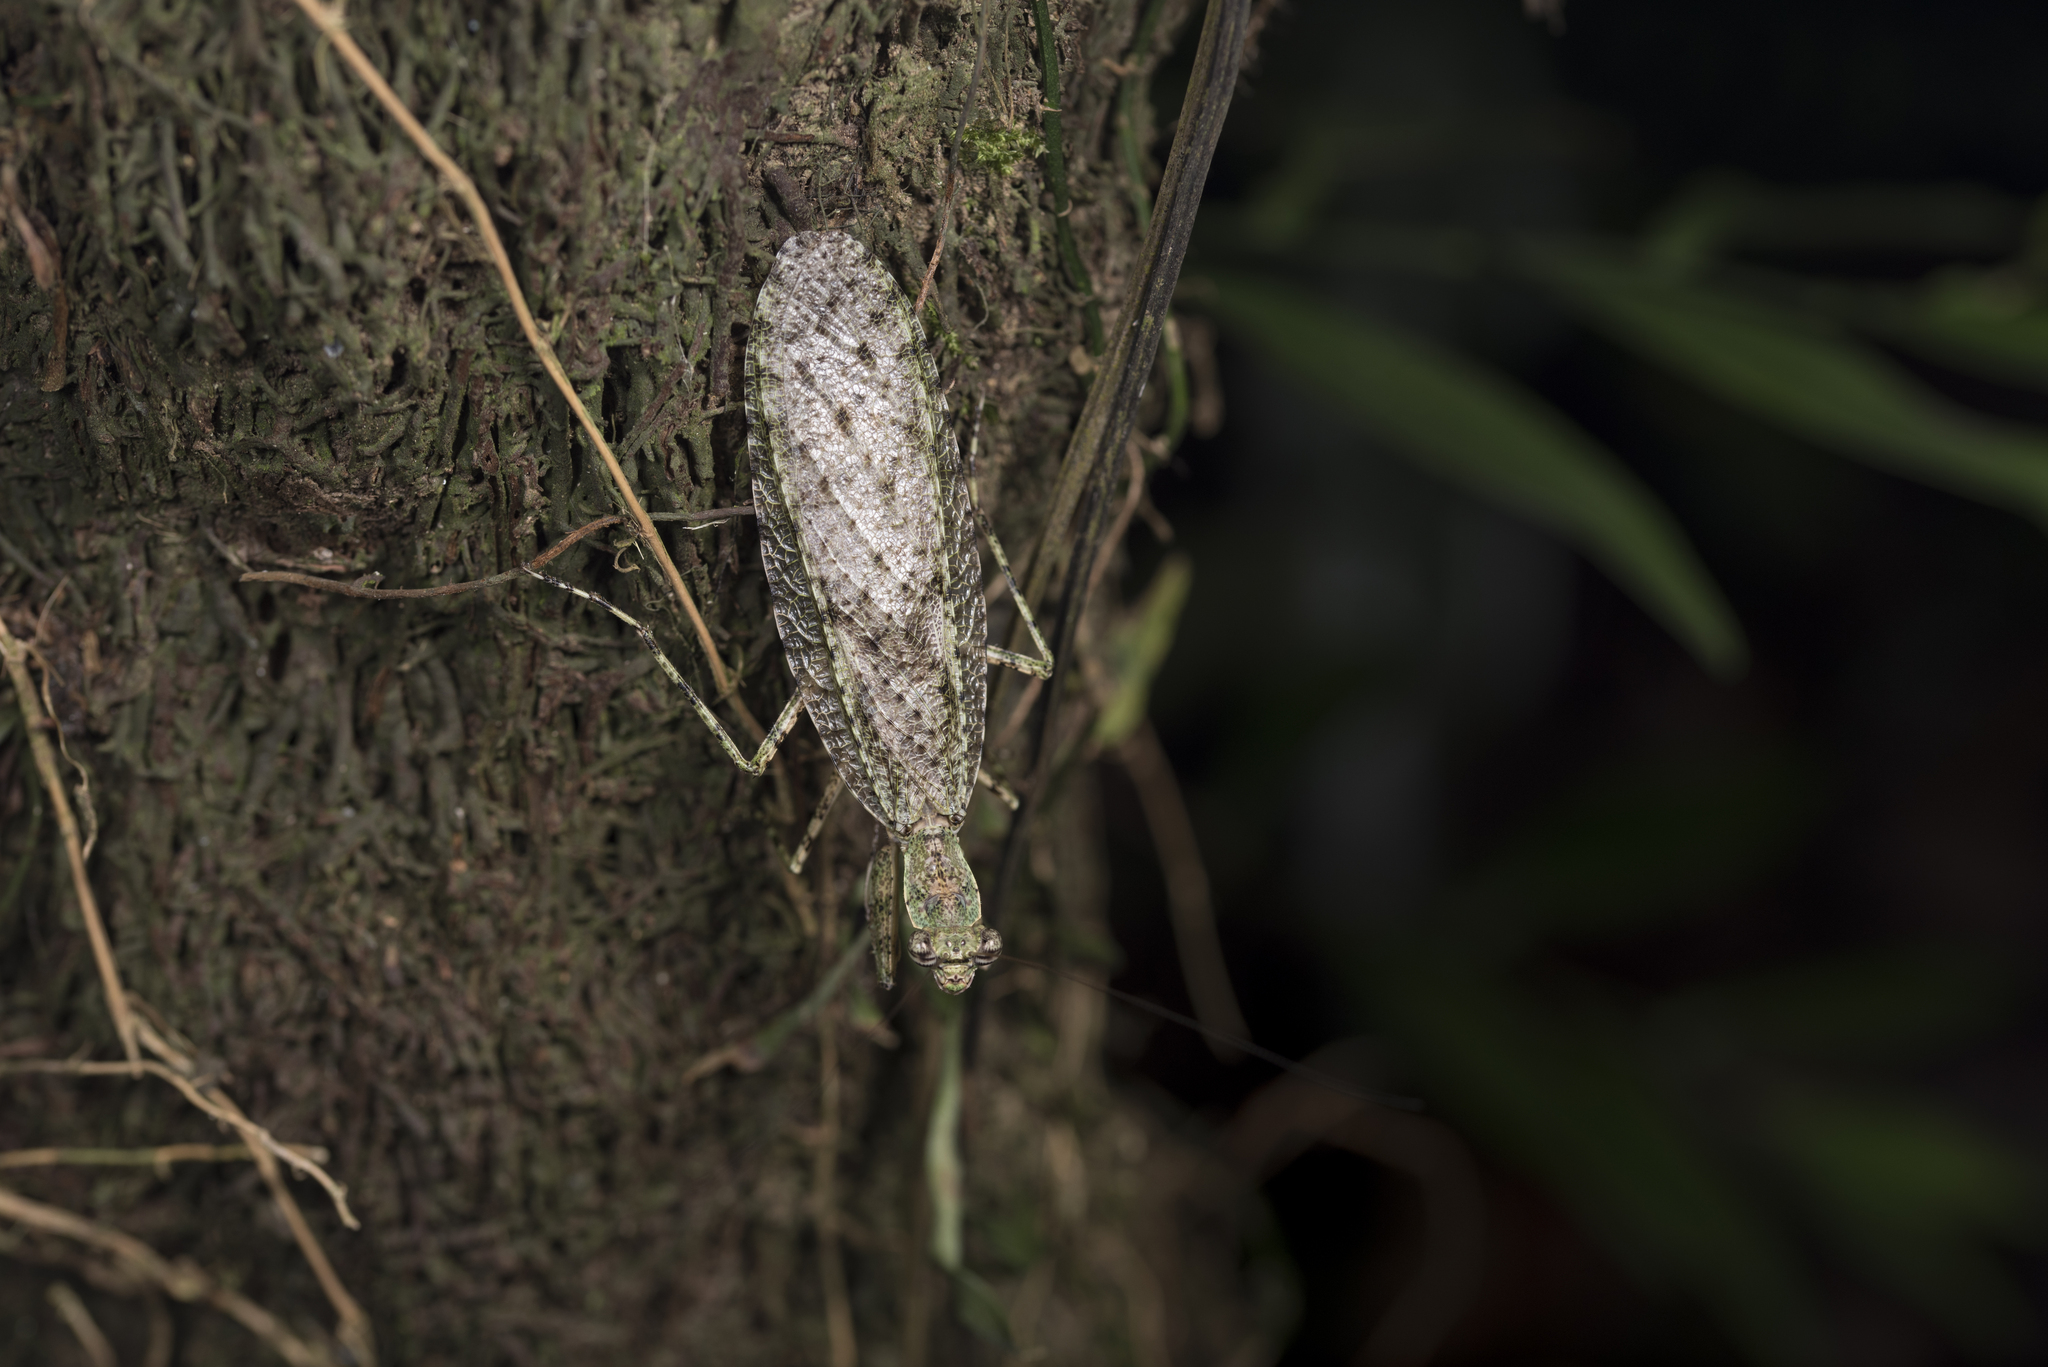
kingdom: Animalia
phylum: Arthropoda
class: Insecta
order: Mantodea
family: Gonypetidae
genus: Theopompa
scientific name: Theopompa ophthalmica
